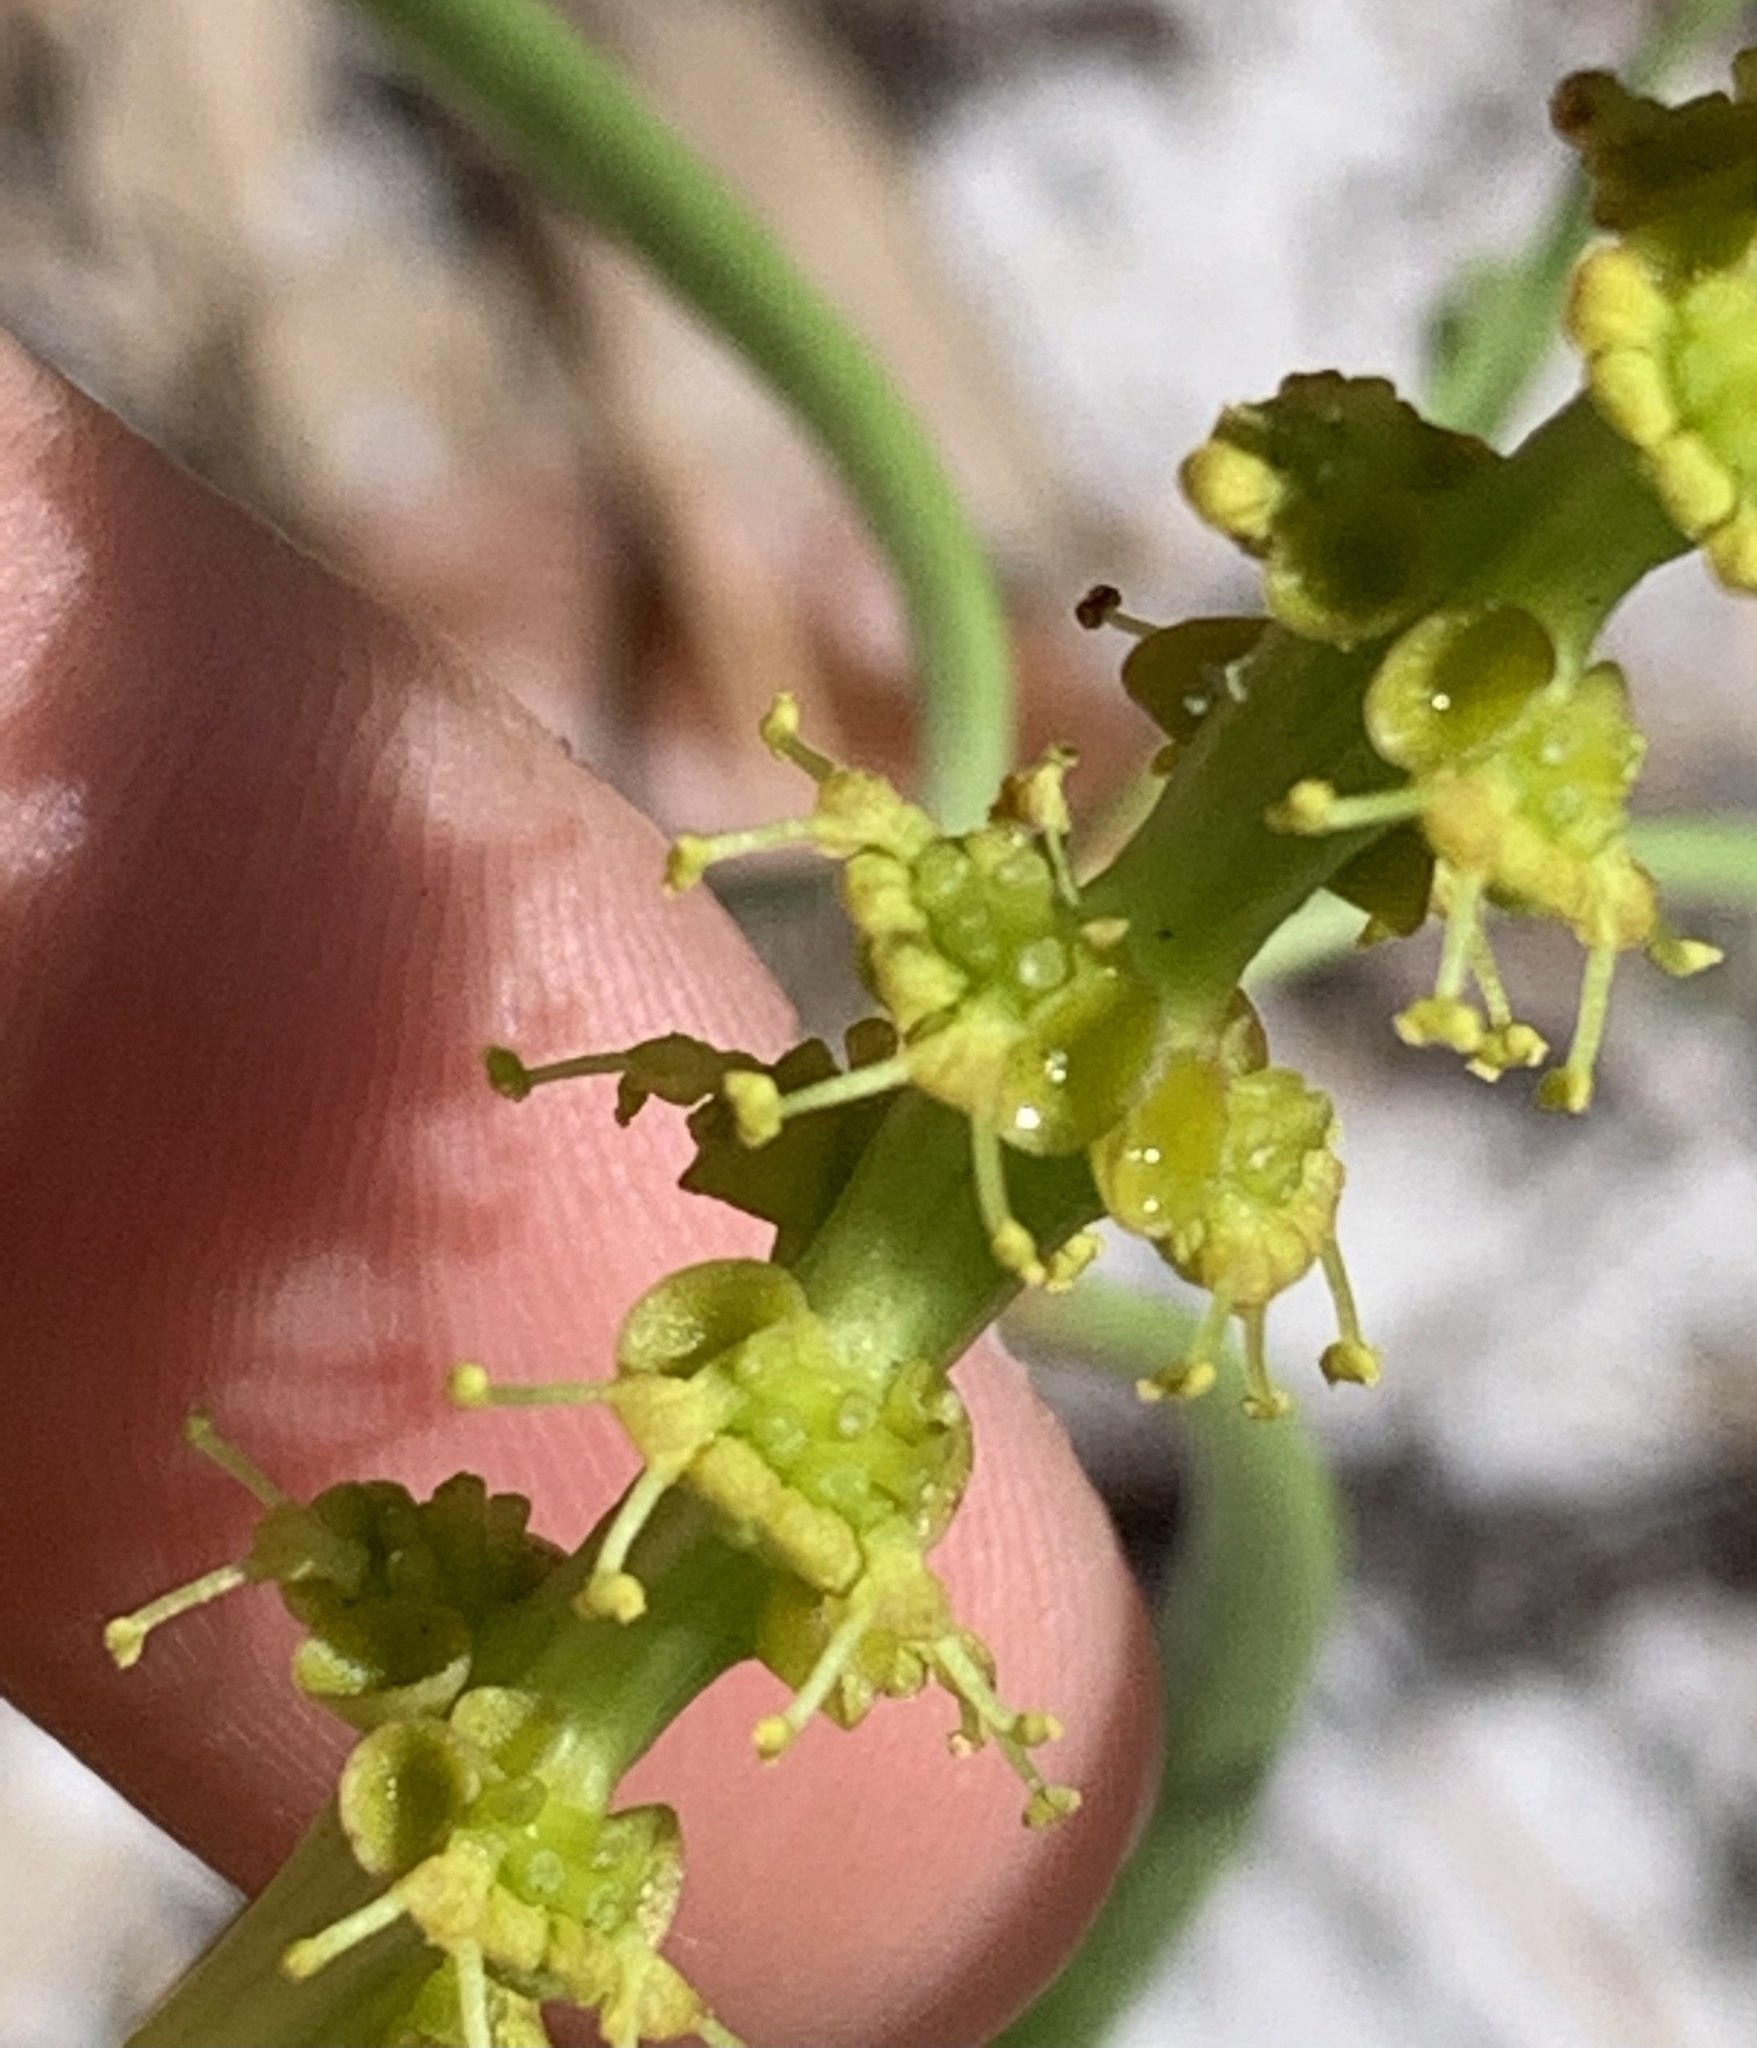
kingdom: Plantae
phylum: Tracheophyta
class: Magnoliopsida
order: Malpighiales
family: Euphorbiaceae
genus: Stillingia
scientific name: Stillingia sylvatica
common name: Queen's-delight
